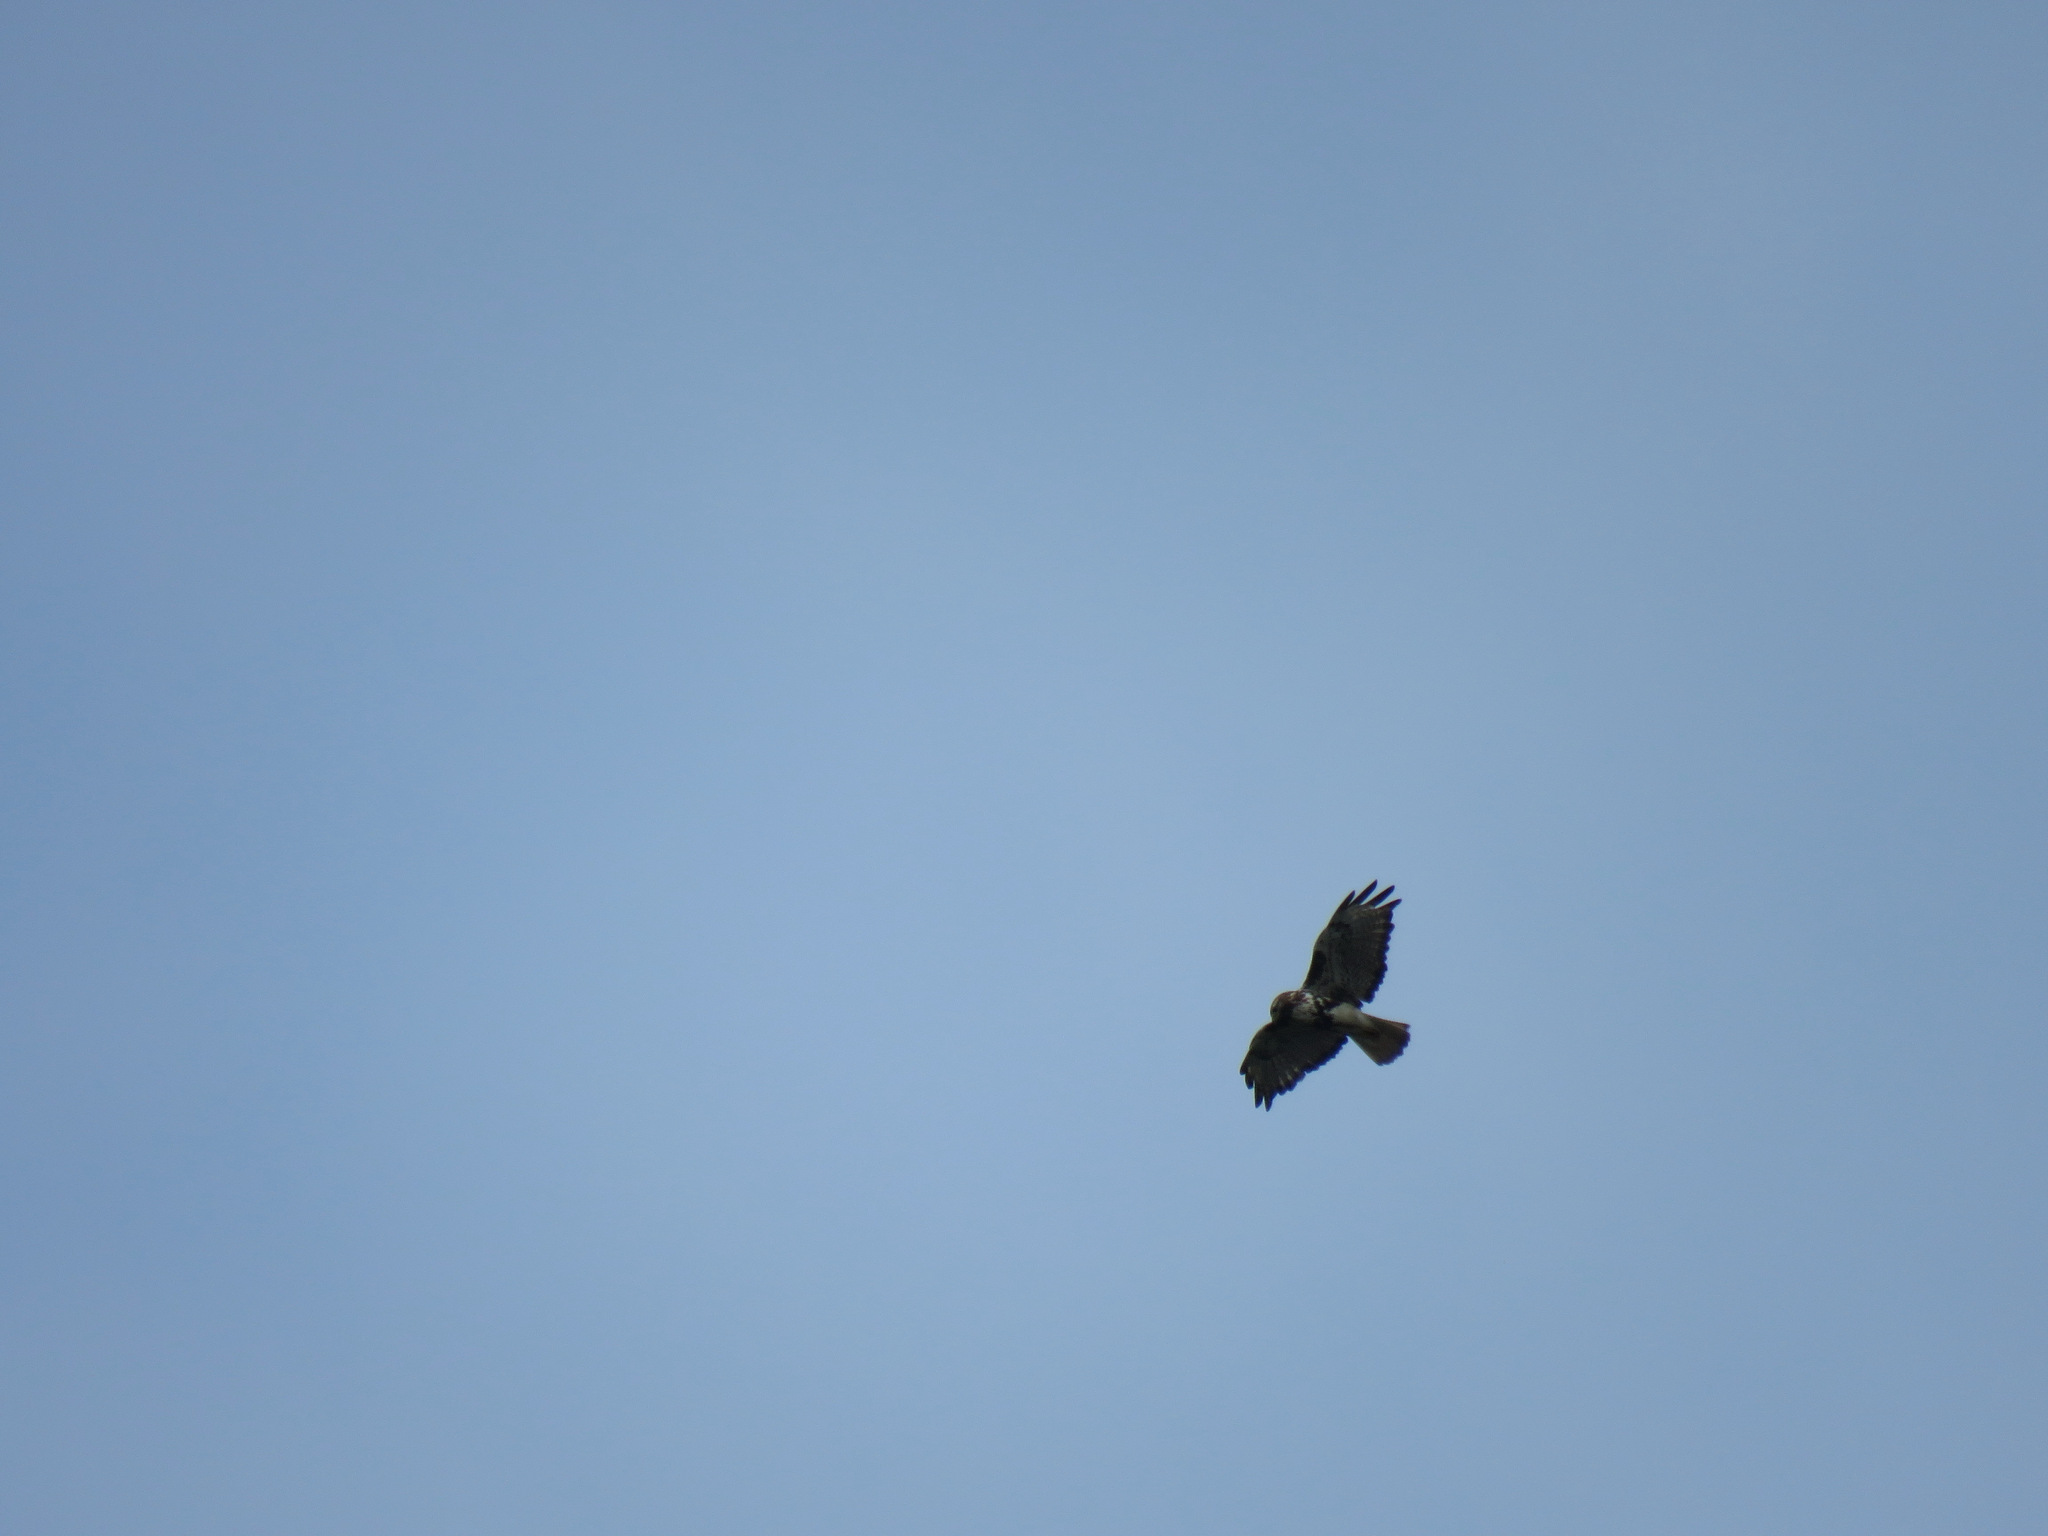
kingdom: Animalia
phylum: Chordata
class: Aves
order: Accipitriformes
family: Accipitridae
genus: Buteo
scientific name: Buteo jamaicensis
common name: Red-tailed hawk
